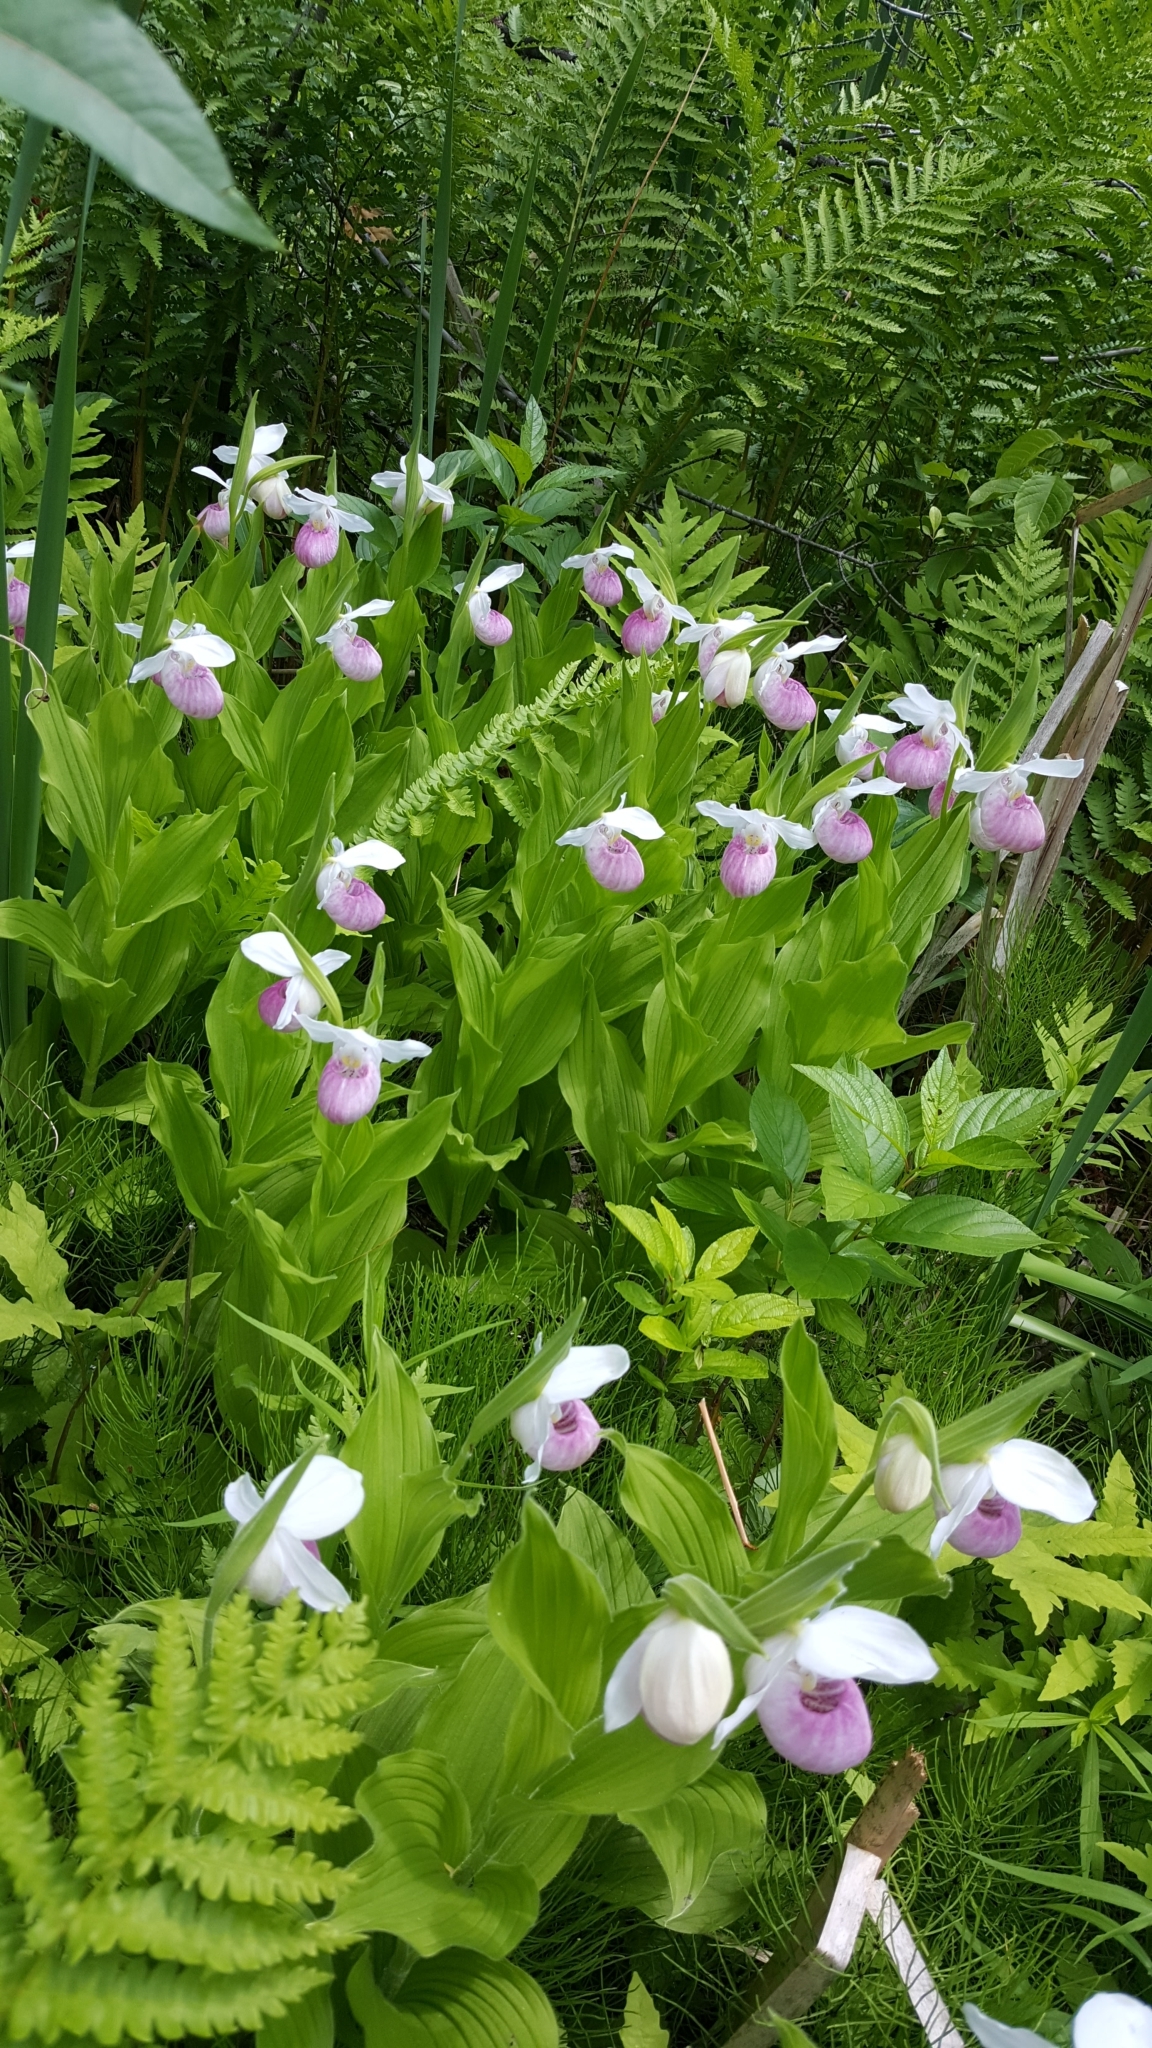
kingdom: Plantae
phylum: Tracheophyta
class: Liliopsida
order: Asparagales
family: Orchidaceae
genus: Cypripedium
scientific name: Cypripedium reginae
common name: Queen lady's-slipper
